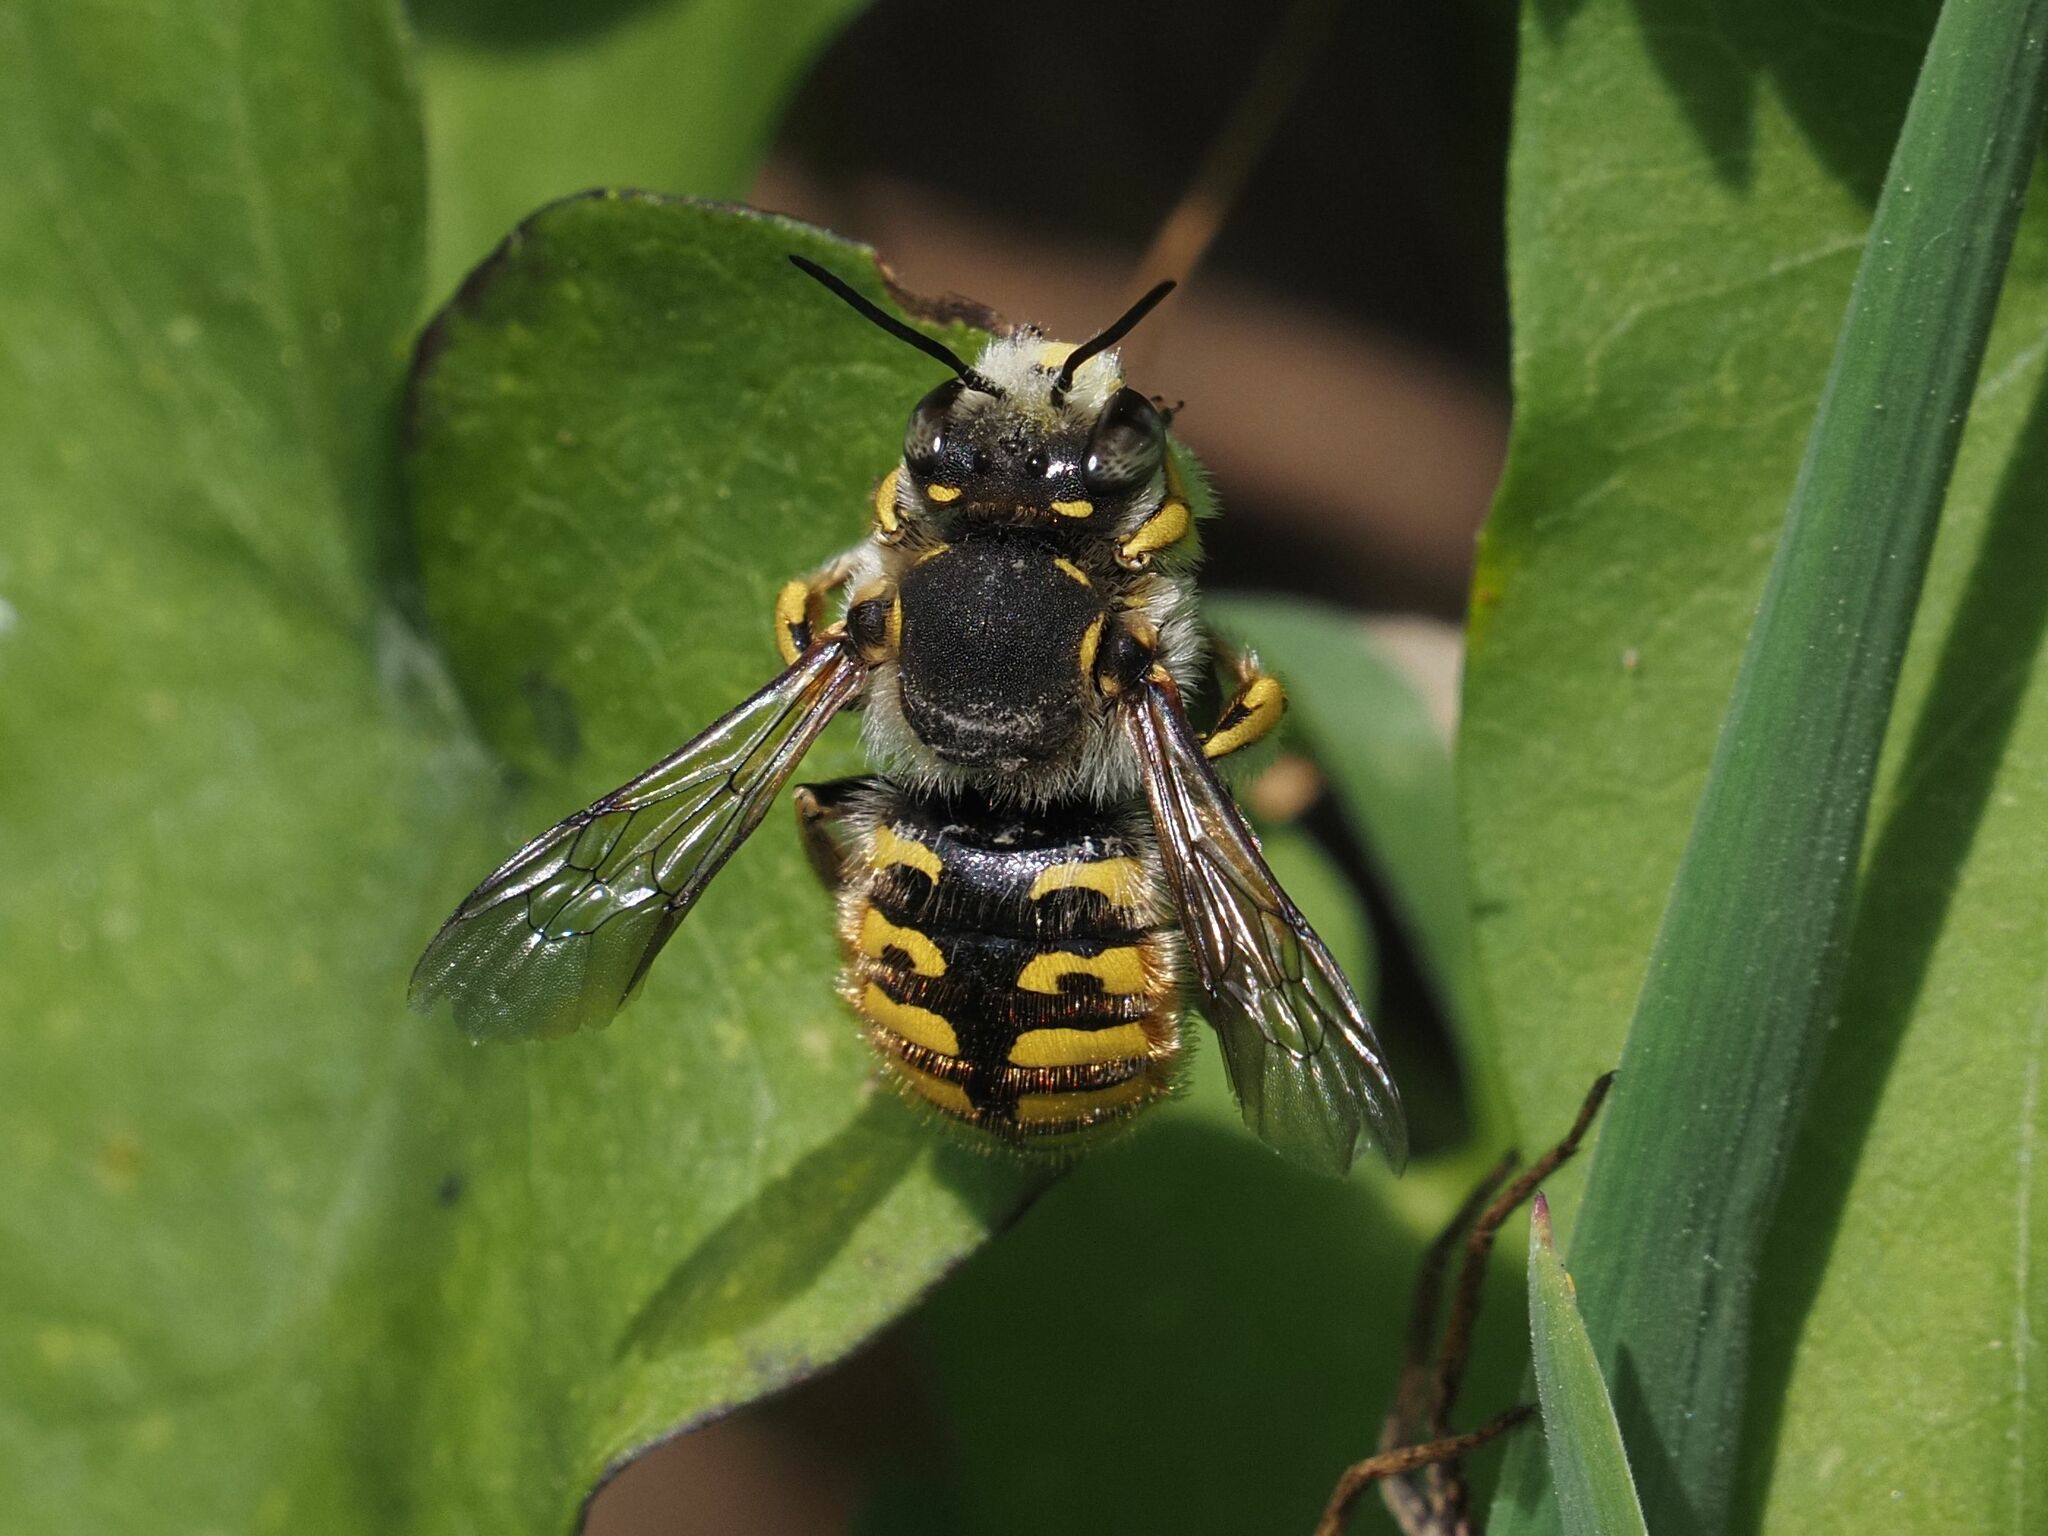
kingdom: Animalia
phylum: Arthropoda
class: Insecta
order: Hymenoptera
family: Megachilidae
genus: Anthidium
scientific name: Anthidium manicatum
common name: Wool carder bee
